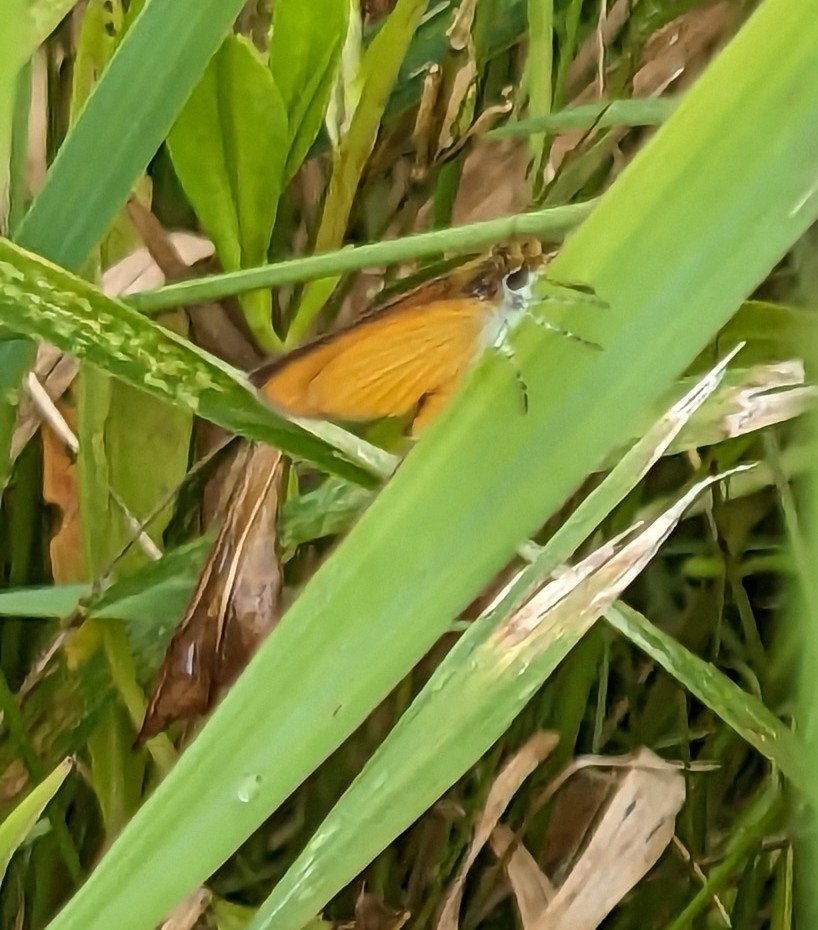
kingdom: Animalia
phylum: Arthropoda
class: Insecta
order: Lepidoptera
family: Hesperiidae
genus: Ancyloxypha
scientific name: Ancyloxypha numitor
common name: Least skipper
